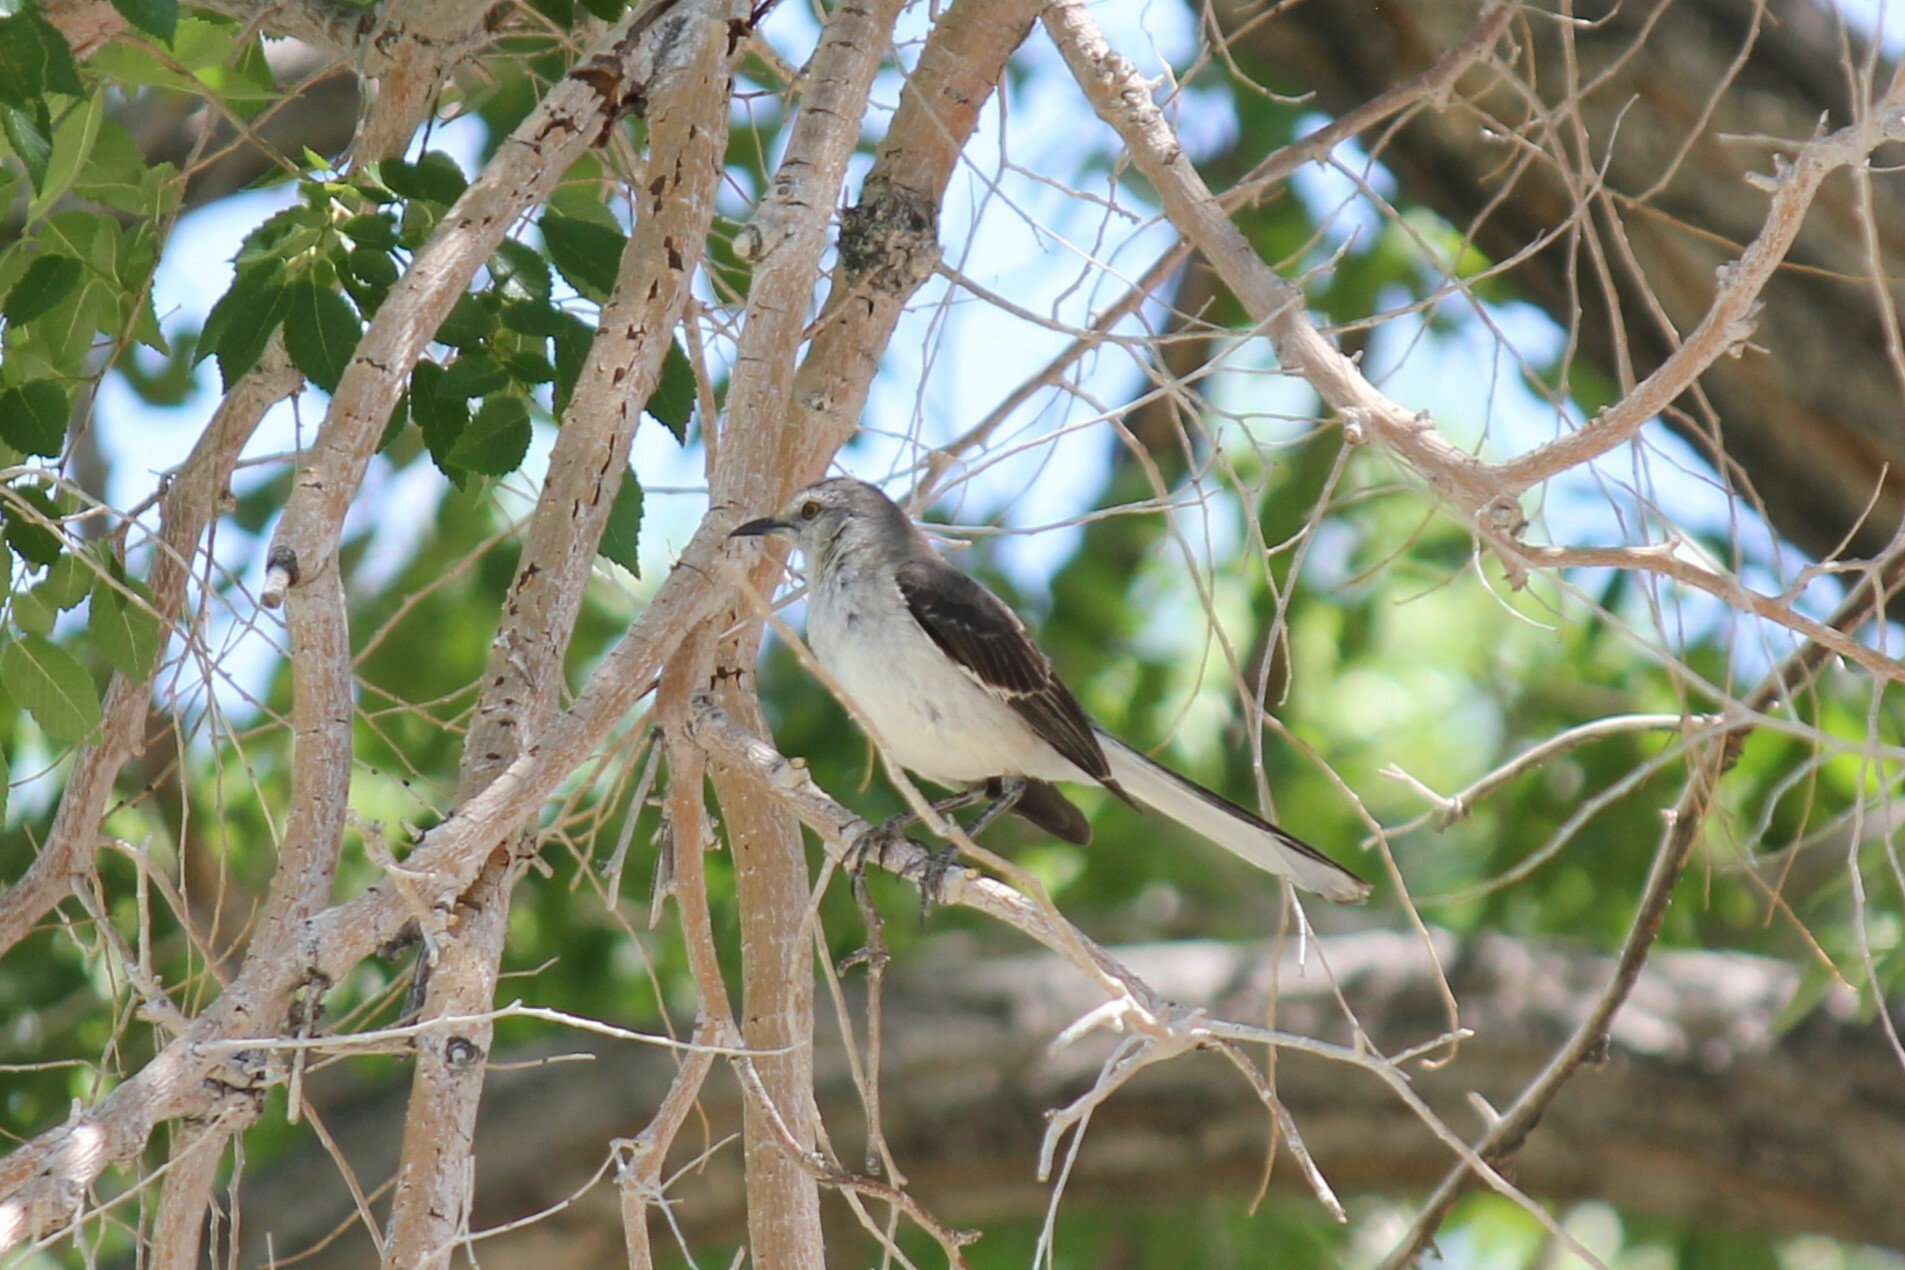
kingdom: Animalia
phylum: Chordata
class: Aves
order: Passeriformes
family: Mimidae
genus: Mimus
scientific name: Mimus polyglottos
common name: Northern mockingbird
